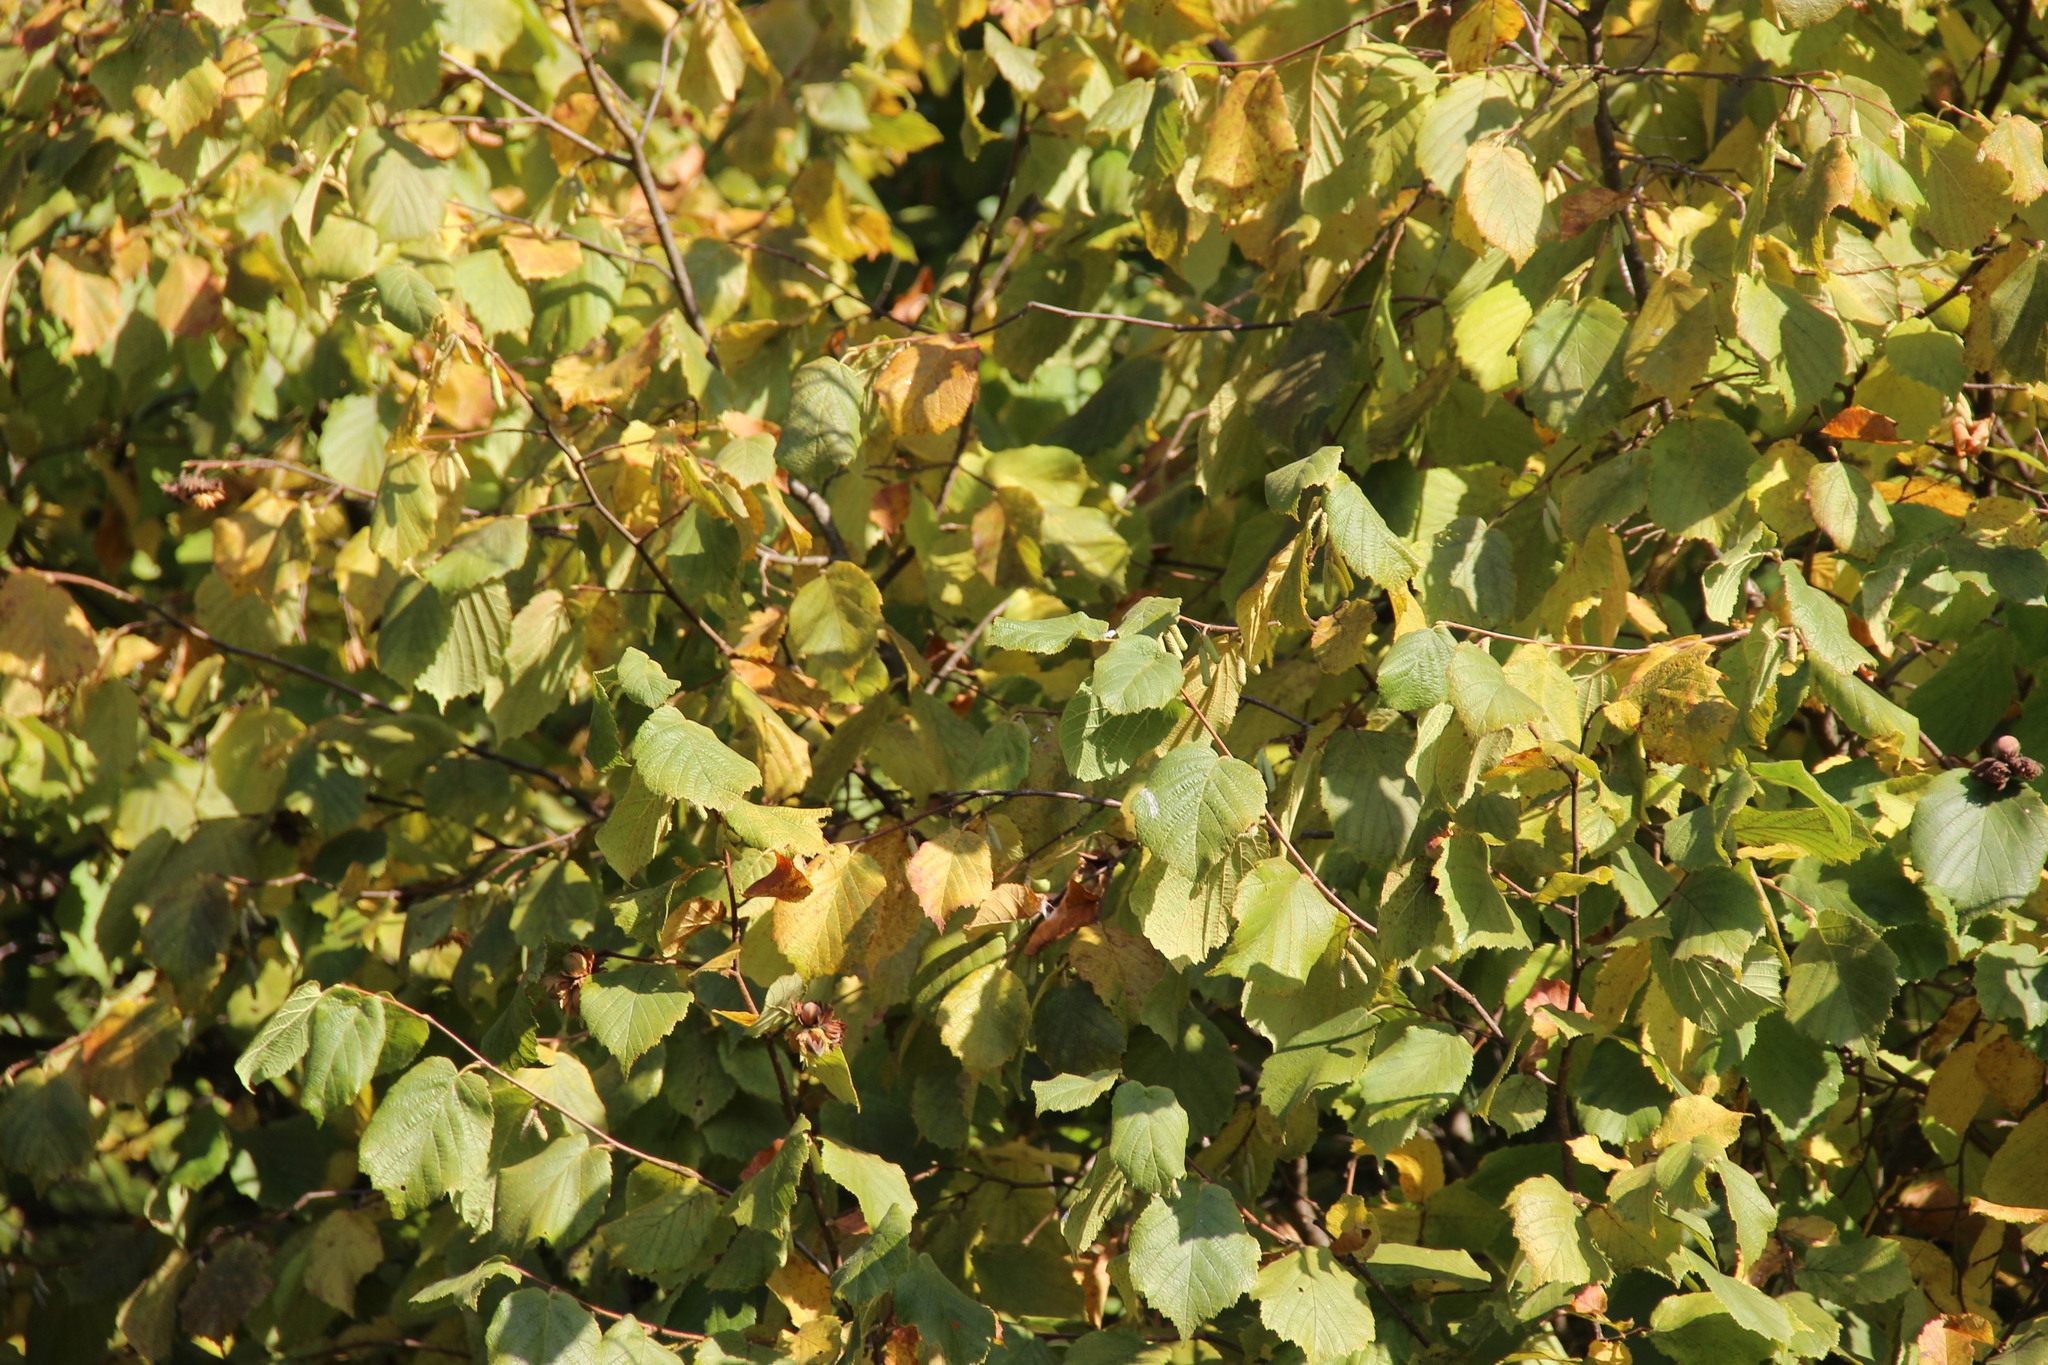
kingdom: Plantae
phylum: Tracheophyta
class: Magnoliopsida
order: Fagales
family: Betulaceae
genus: Corylus
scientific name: Corylus avellana
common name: European hazel
